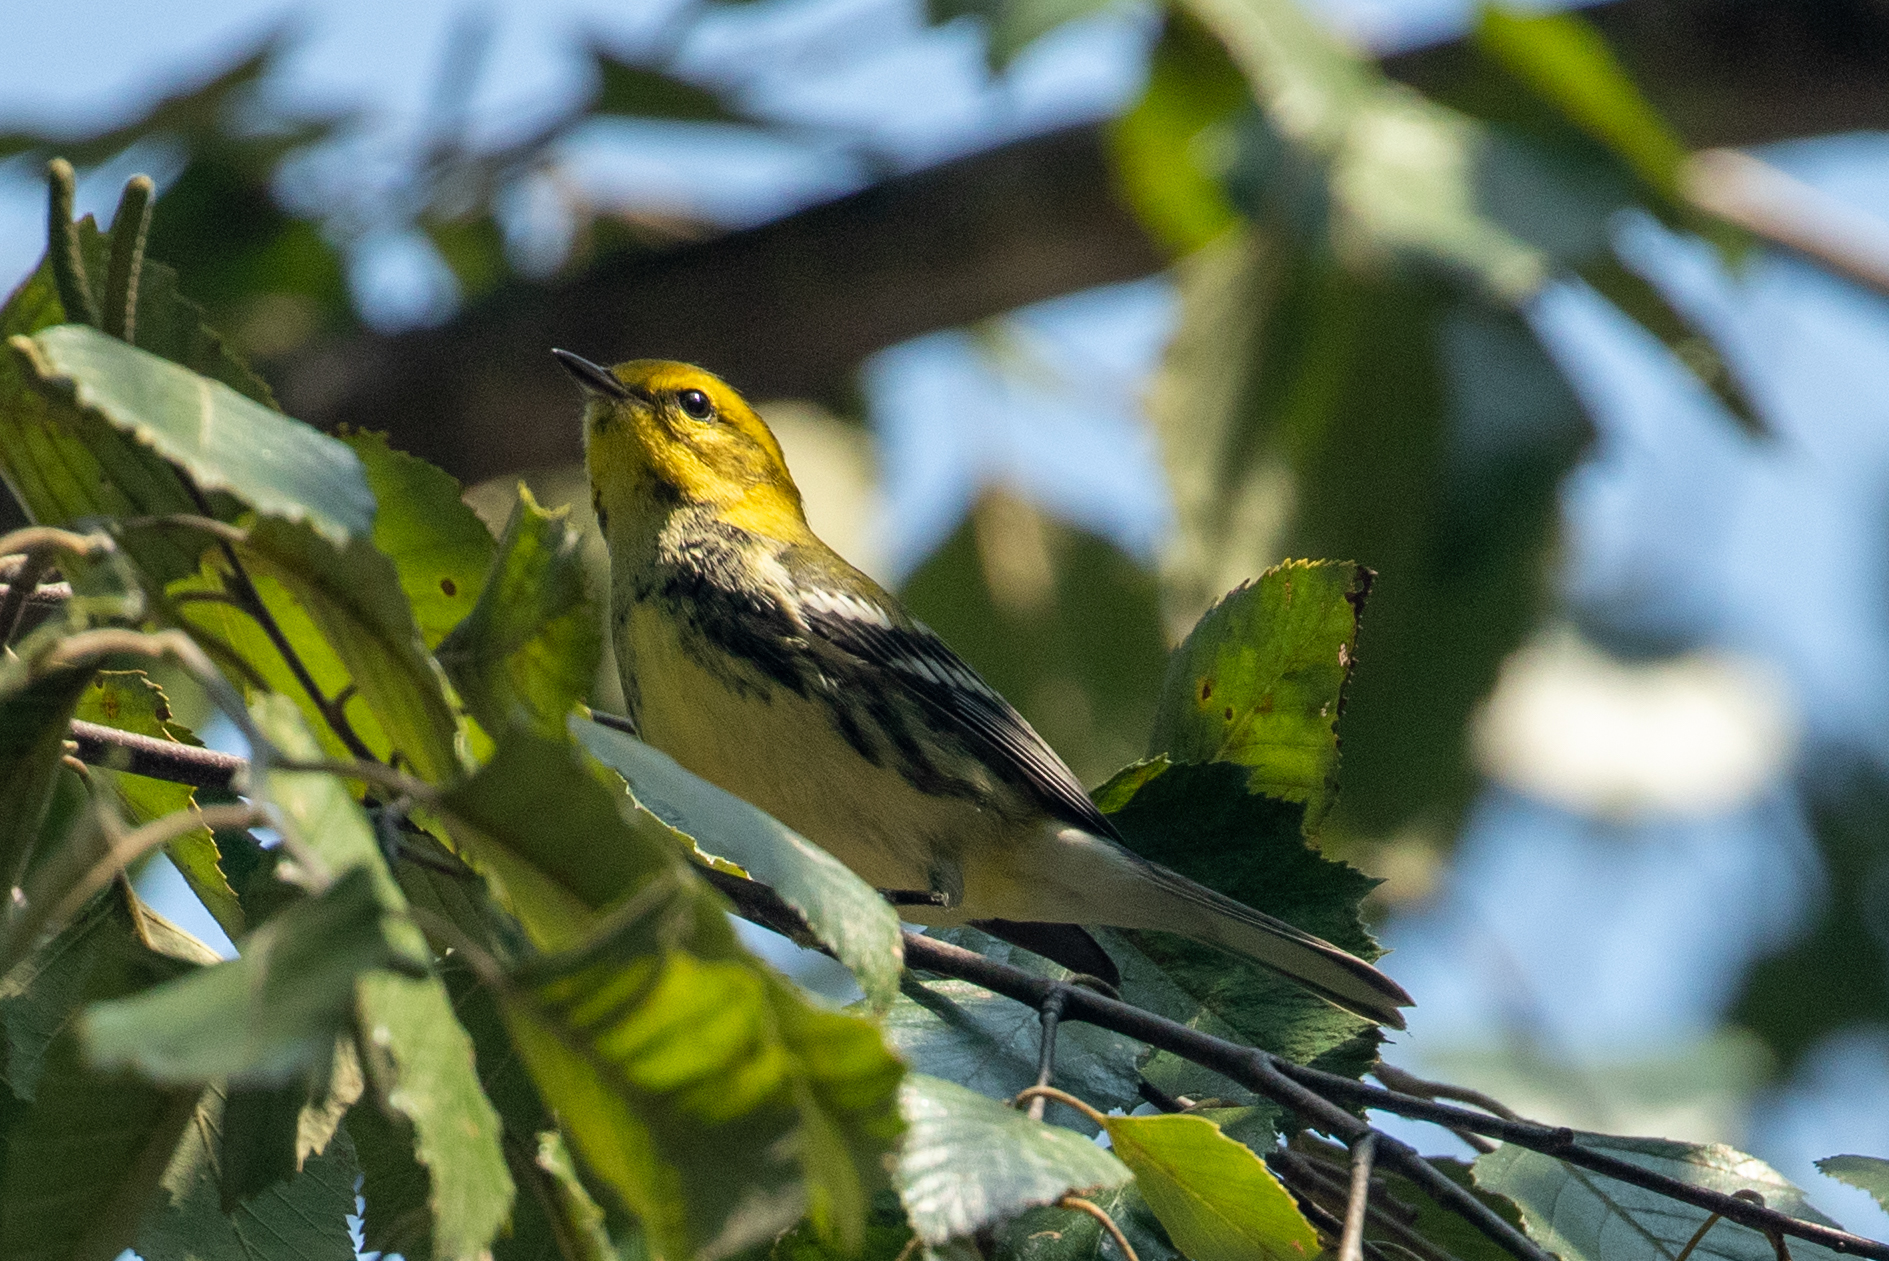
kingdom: Animalia
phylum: Chordata
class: Aves
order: Passeriformes
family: Parulidae
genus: Setophaga
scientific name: Setophaga virens
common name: Black-throated green warbler
